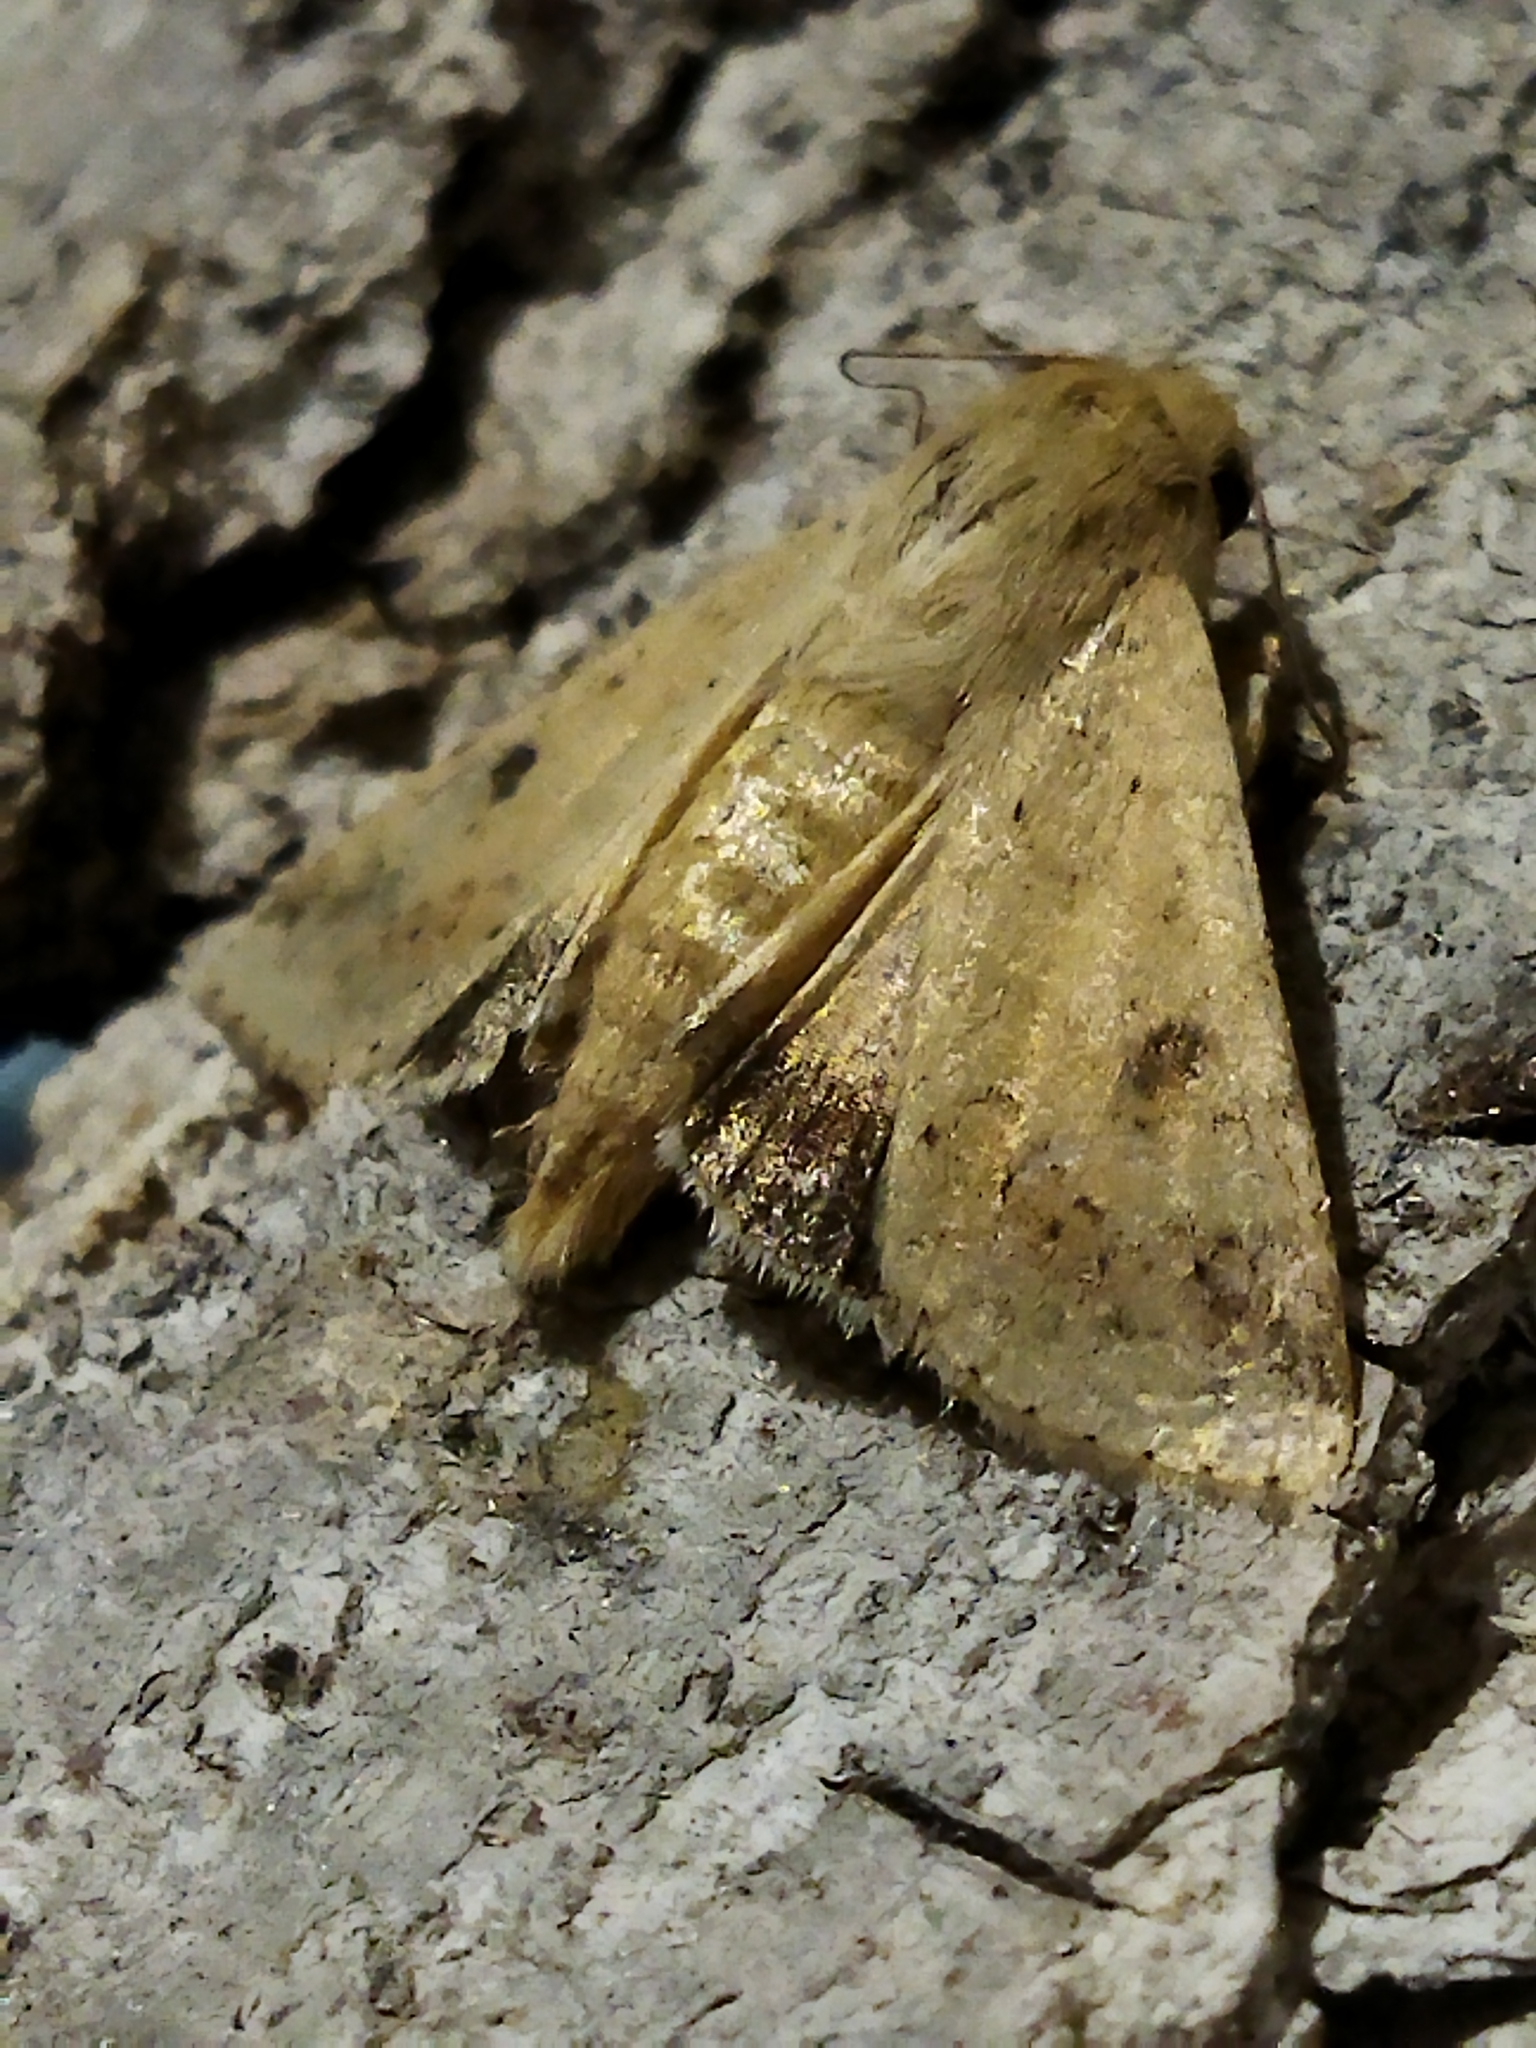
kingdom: Animalia
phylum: Arthropoda
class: Insecta
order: Lepidoptera
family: Noctuidae
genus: Helicoverpa
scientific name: Helicoverpa armigera
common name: Cotton bollworm
